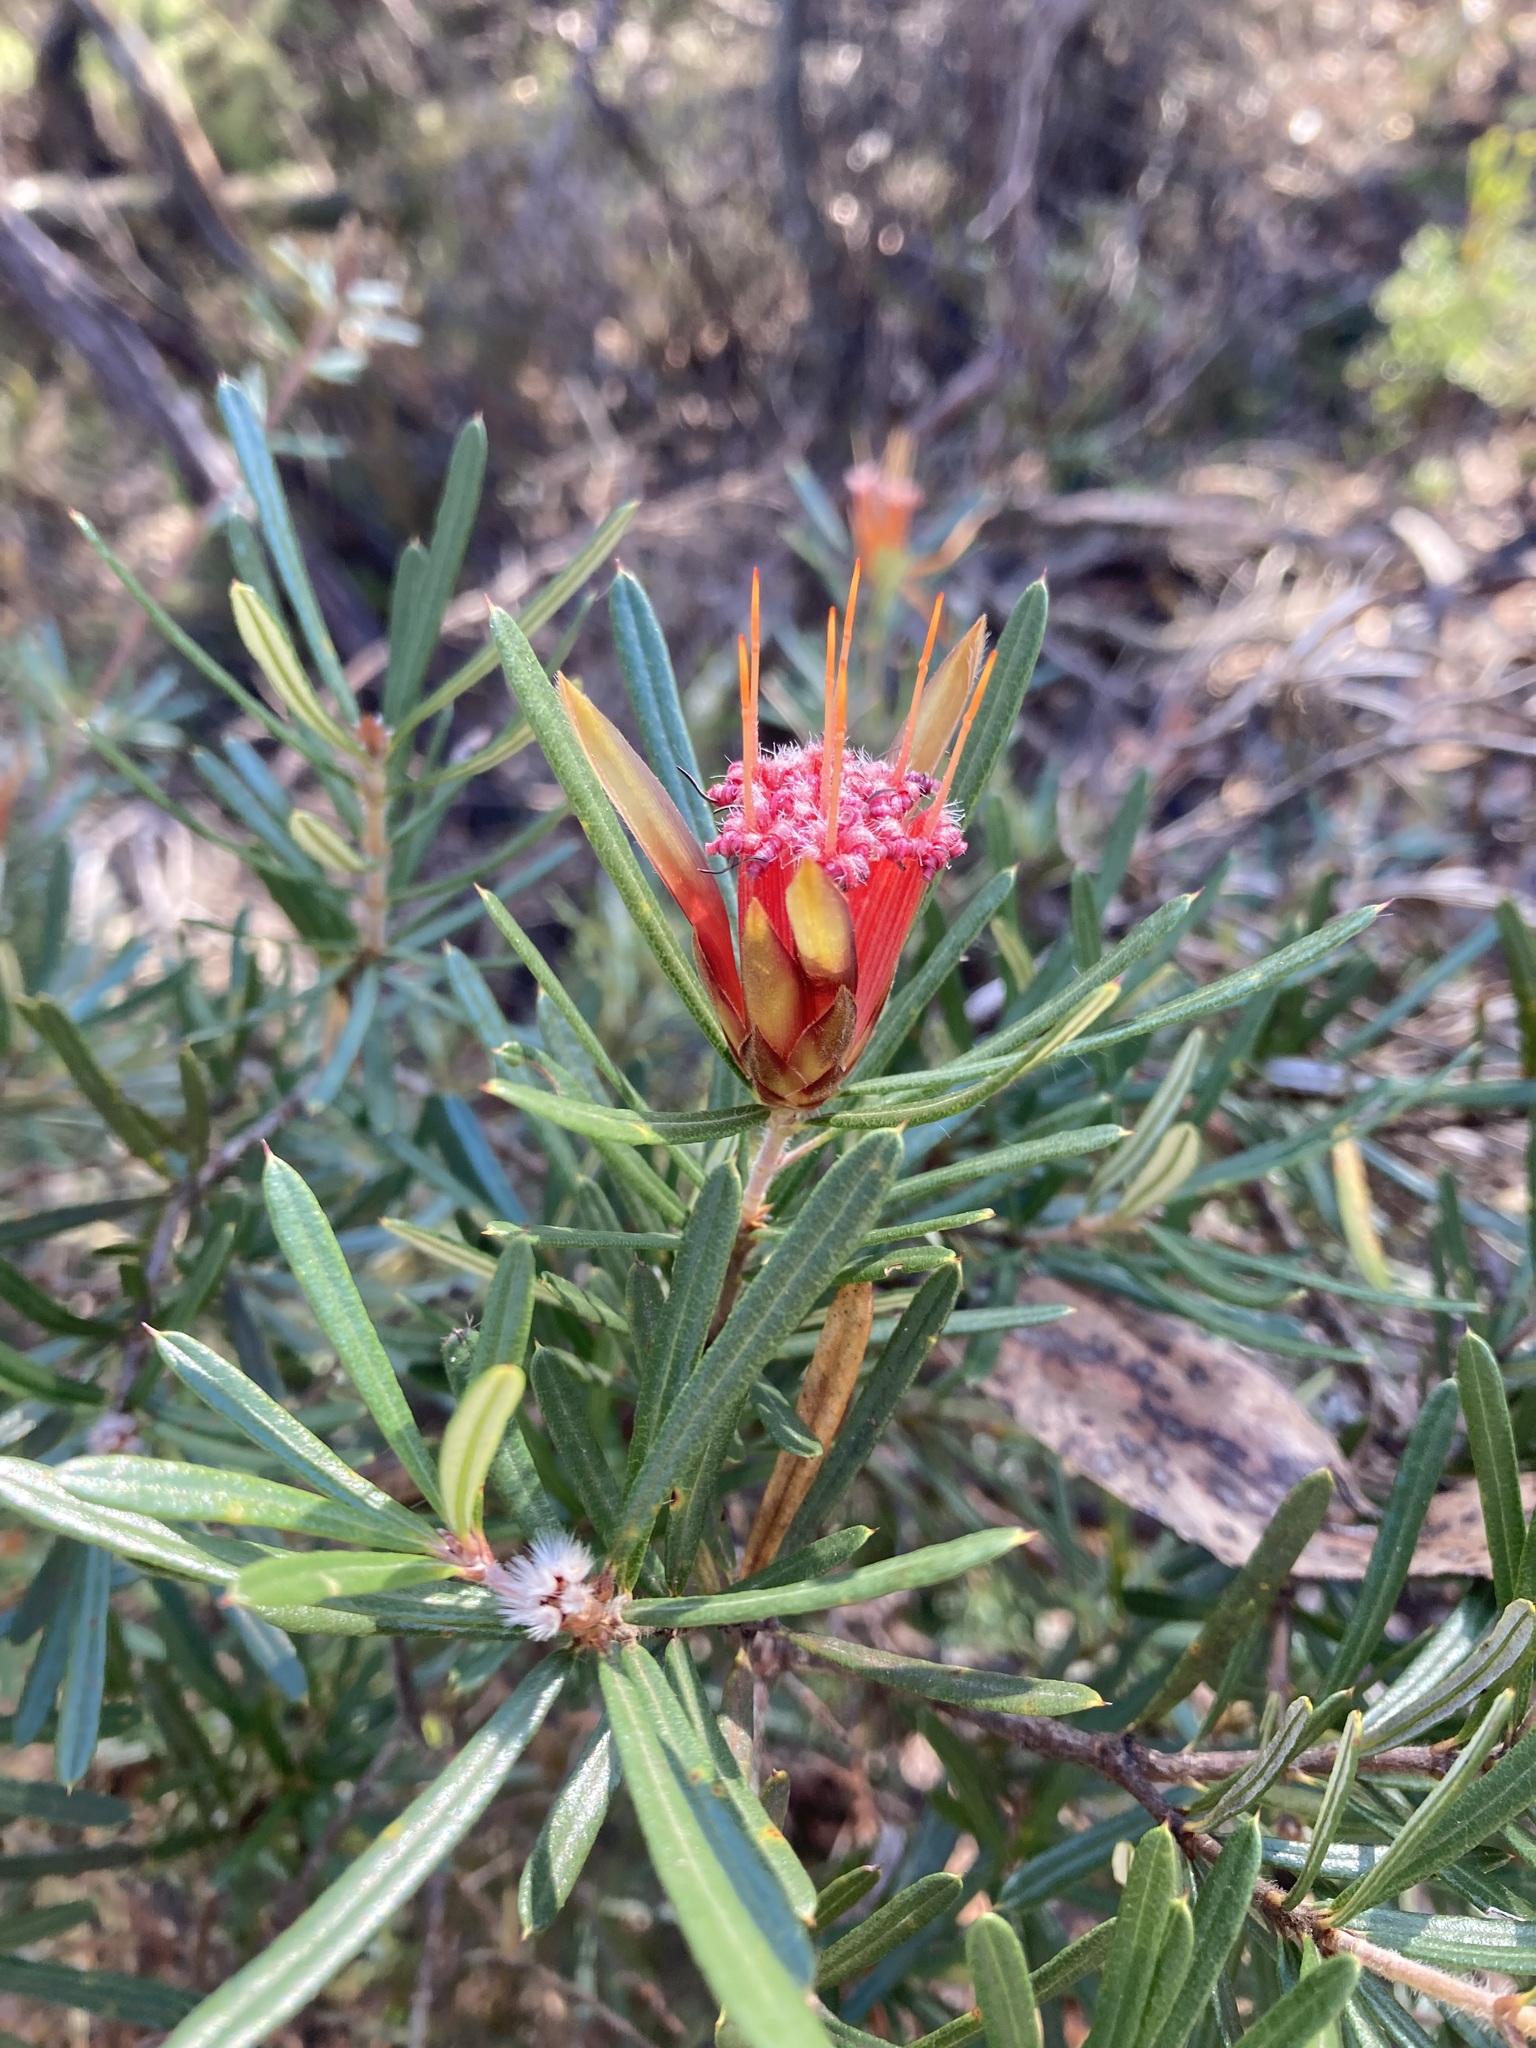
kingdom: Plantae
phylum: Tracheophyta
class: Magnoliopsida
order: Proteales
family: Proteaceae
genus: Lambertia
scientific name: Lambertia formosa
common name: Mountain-devil
